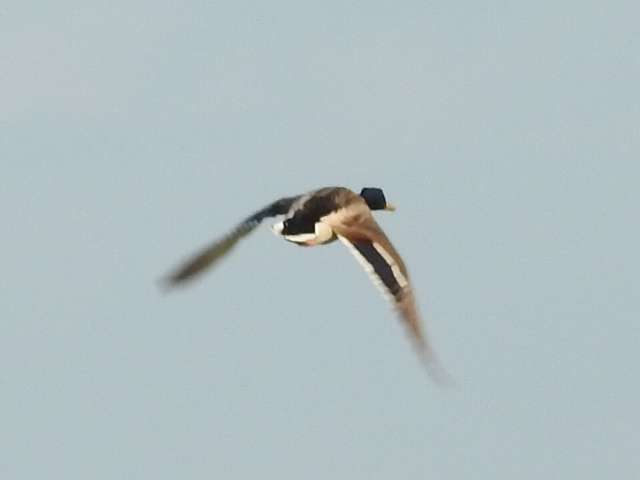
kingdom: Animalia
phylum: Chordata
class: Aves
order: Anseriformes
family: Anatidae
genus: Anas
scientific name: Anas platyrhynchos
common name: Mallard
